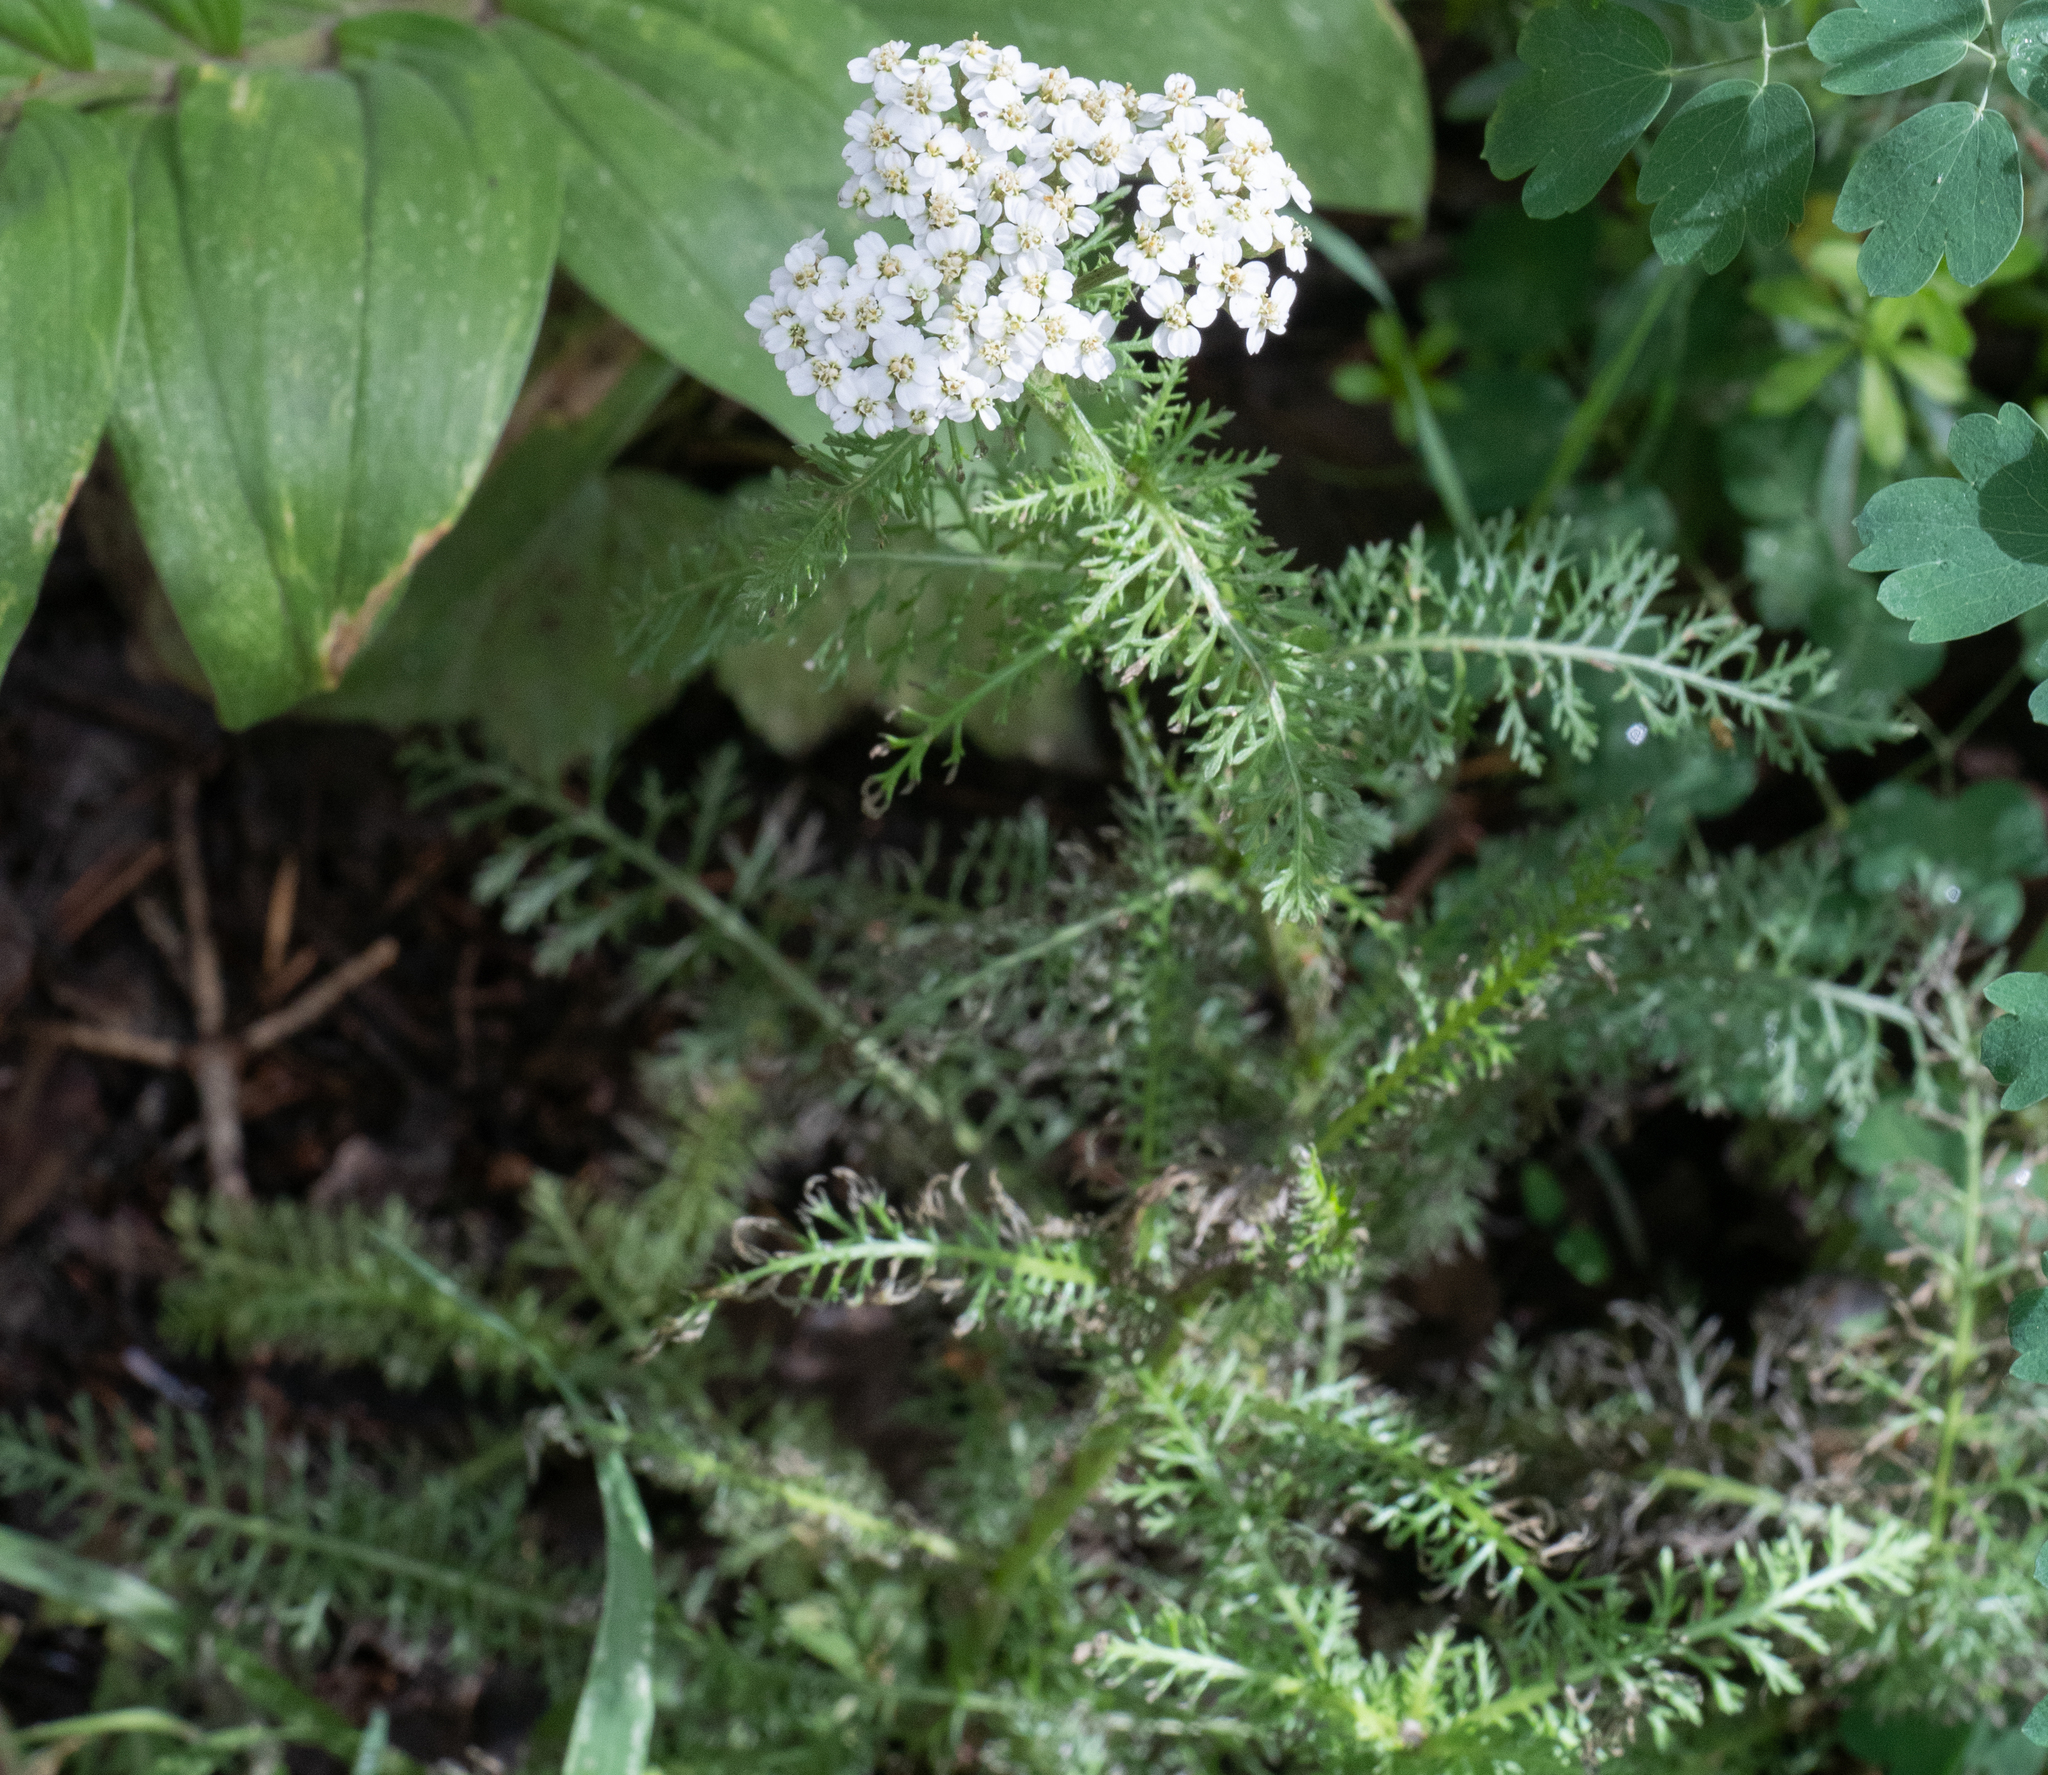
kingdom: Plantae
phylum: Tracheophyta
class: Magnoliopsida
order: Asterales
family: Asteraceae
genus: Achillea
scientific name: Achillea millefolium
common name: Yarrow
